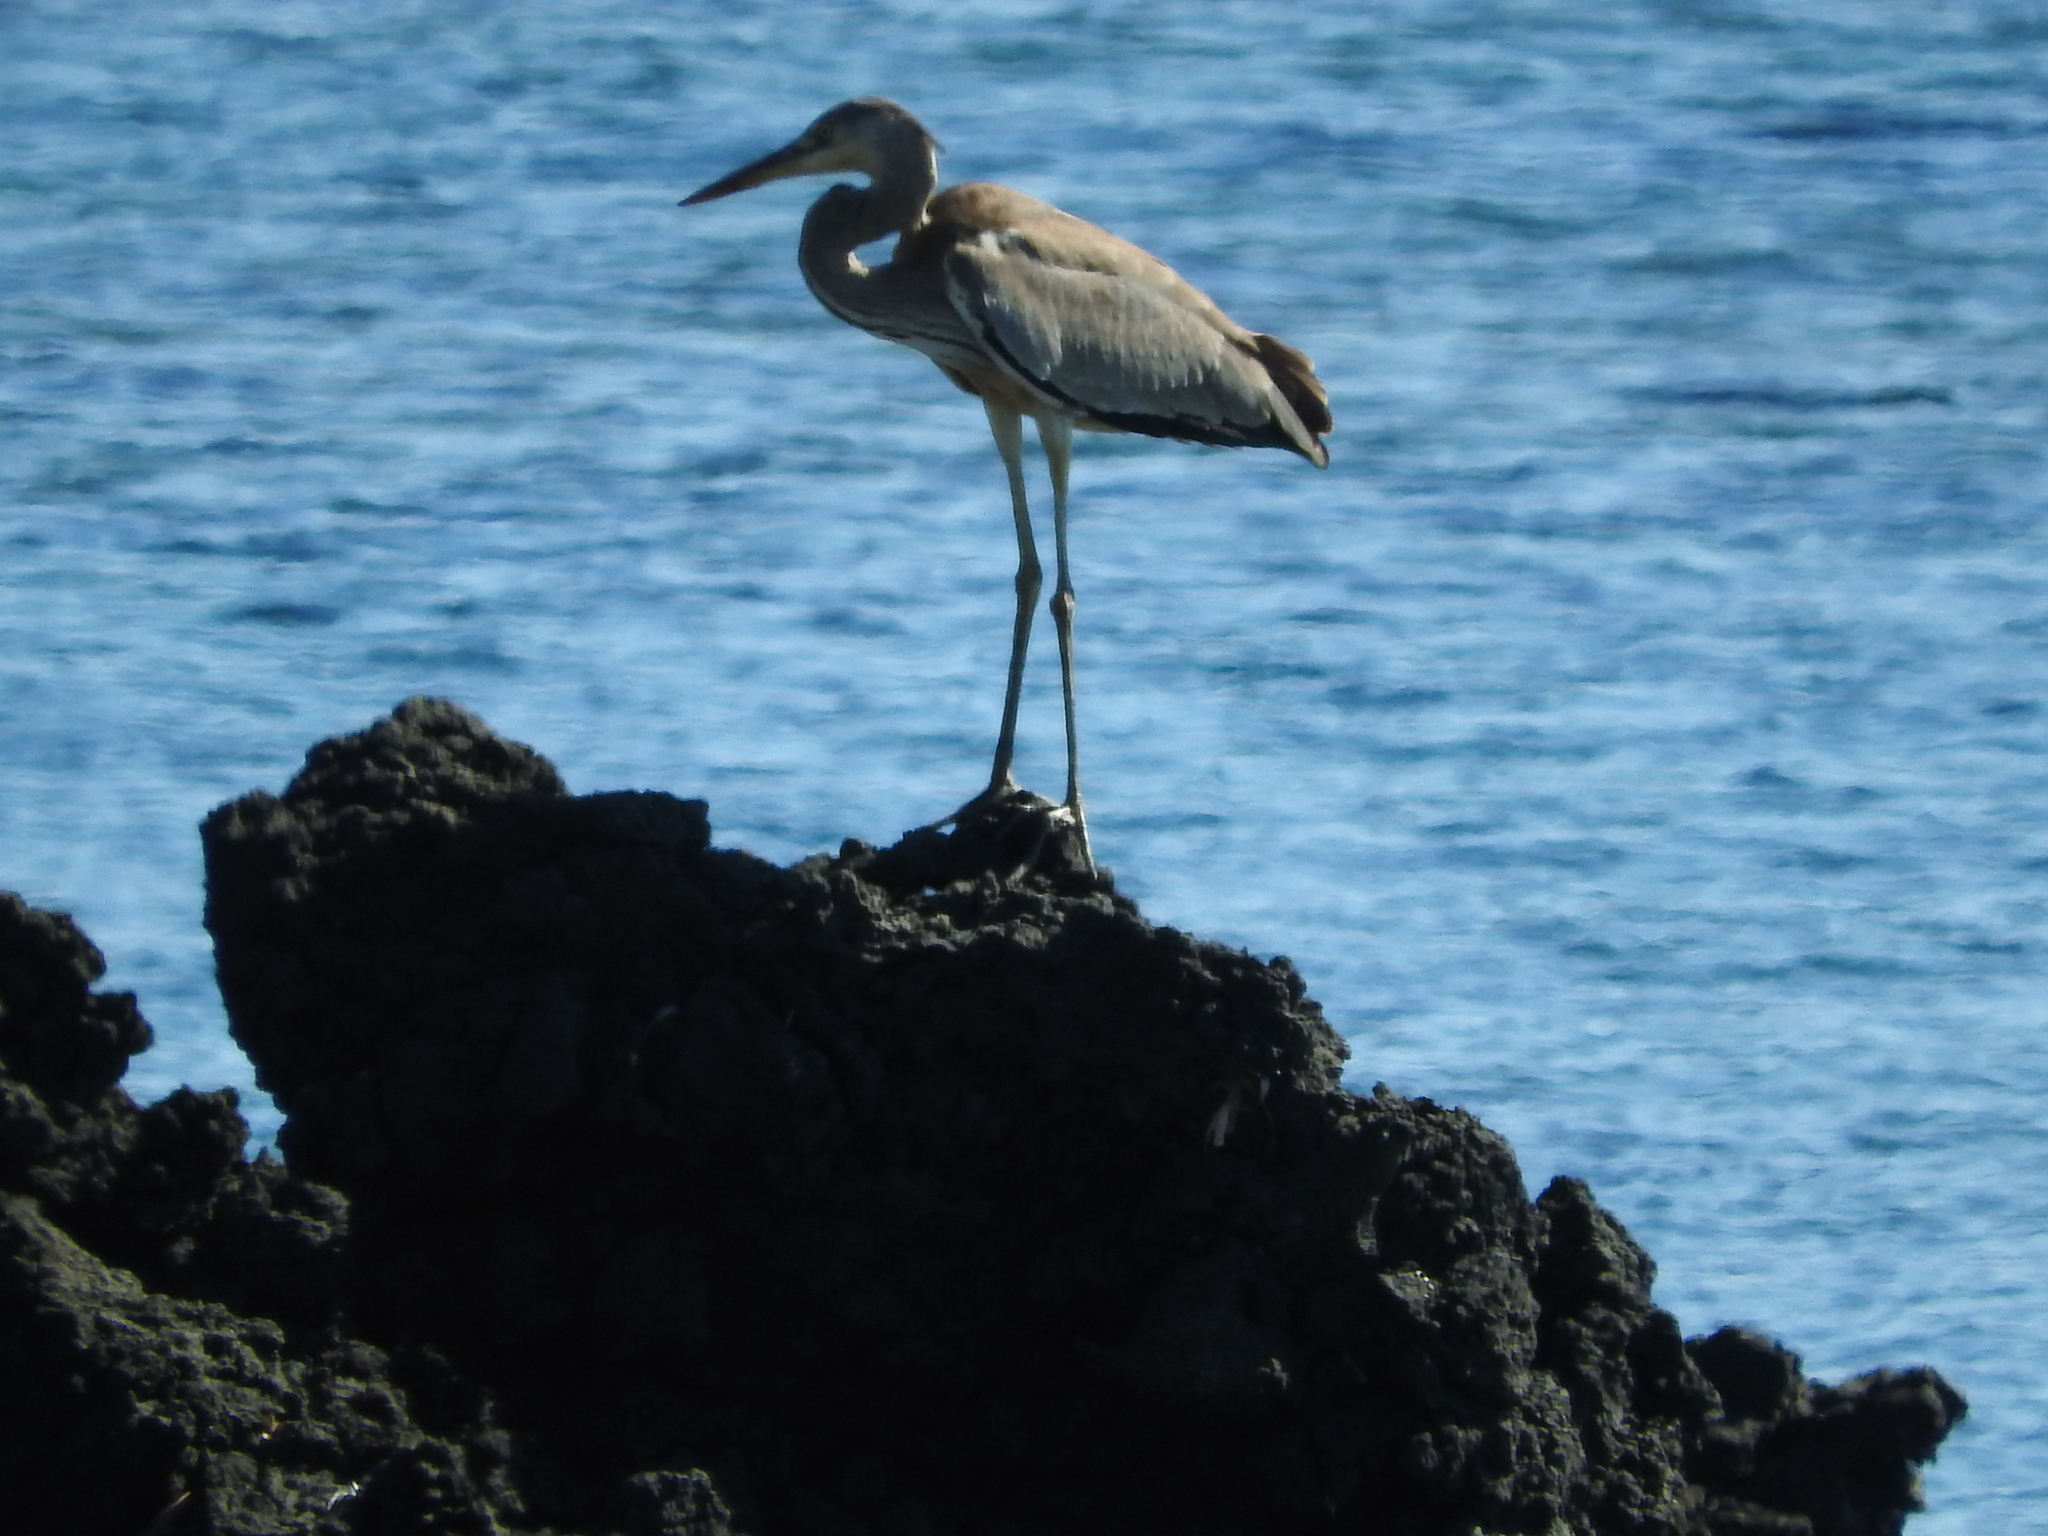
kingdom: Animalia
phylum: Chordata
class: Aves
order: Pelecaniformes
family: Ardeidae
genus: Ardea
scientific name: Ardea cinerea
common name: Grey heron
